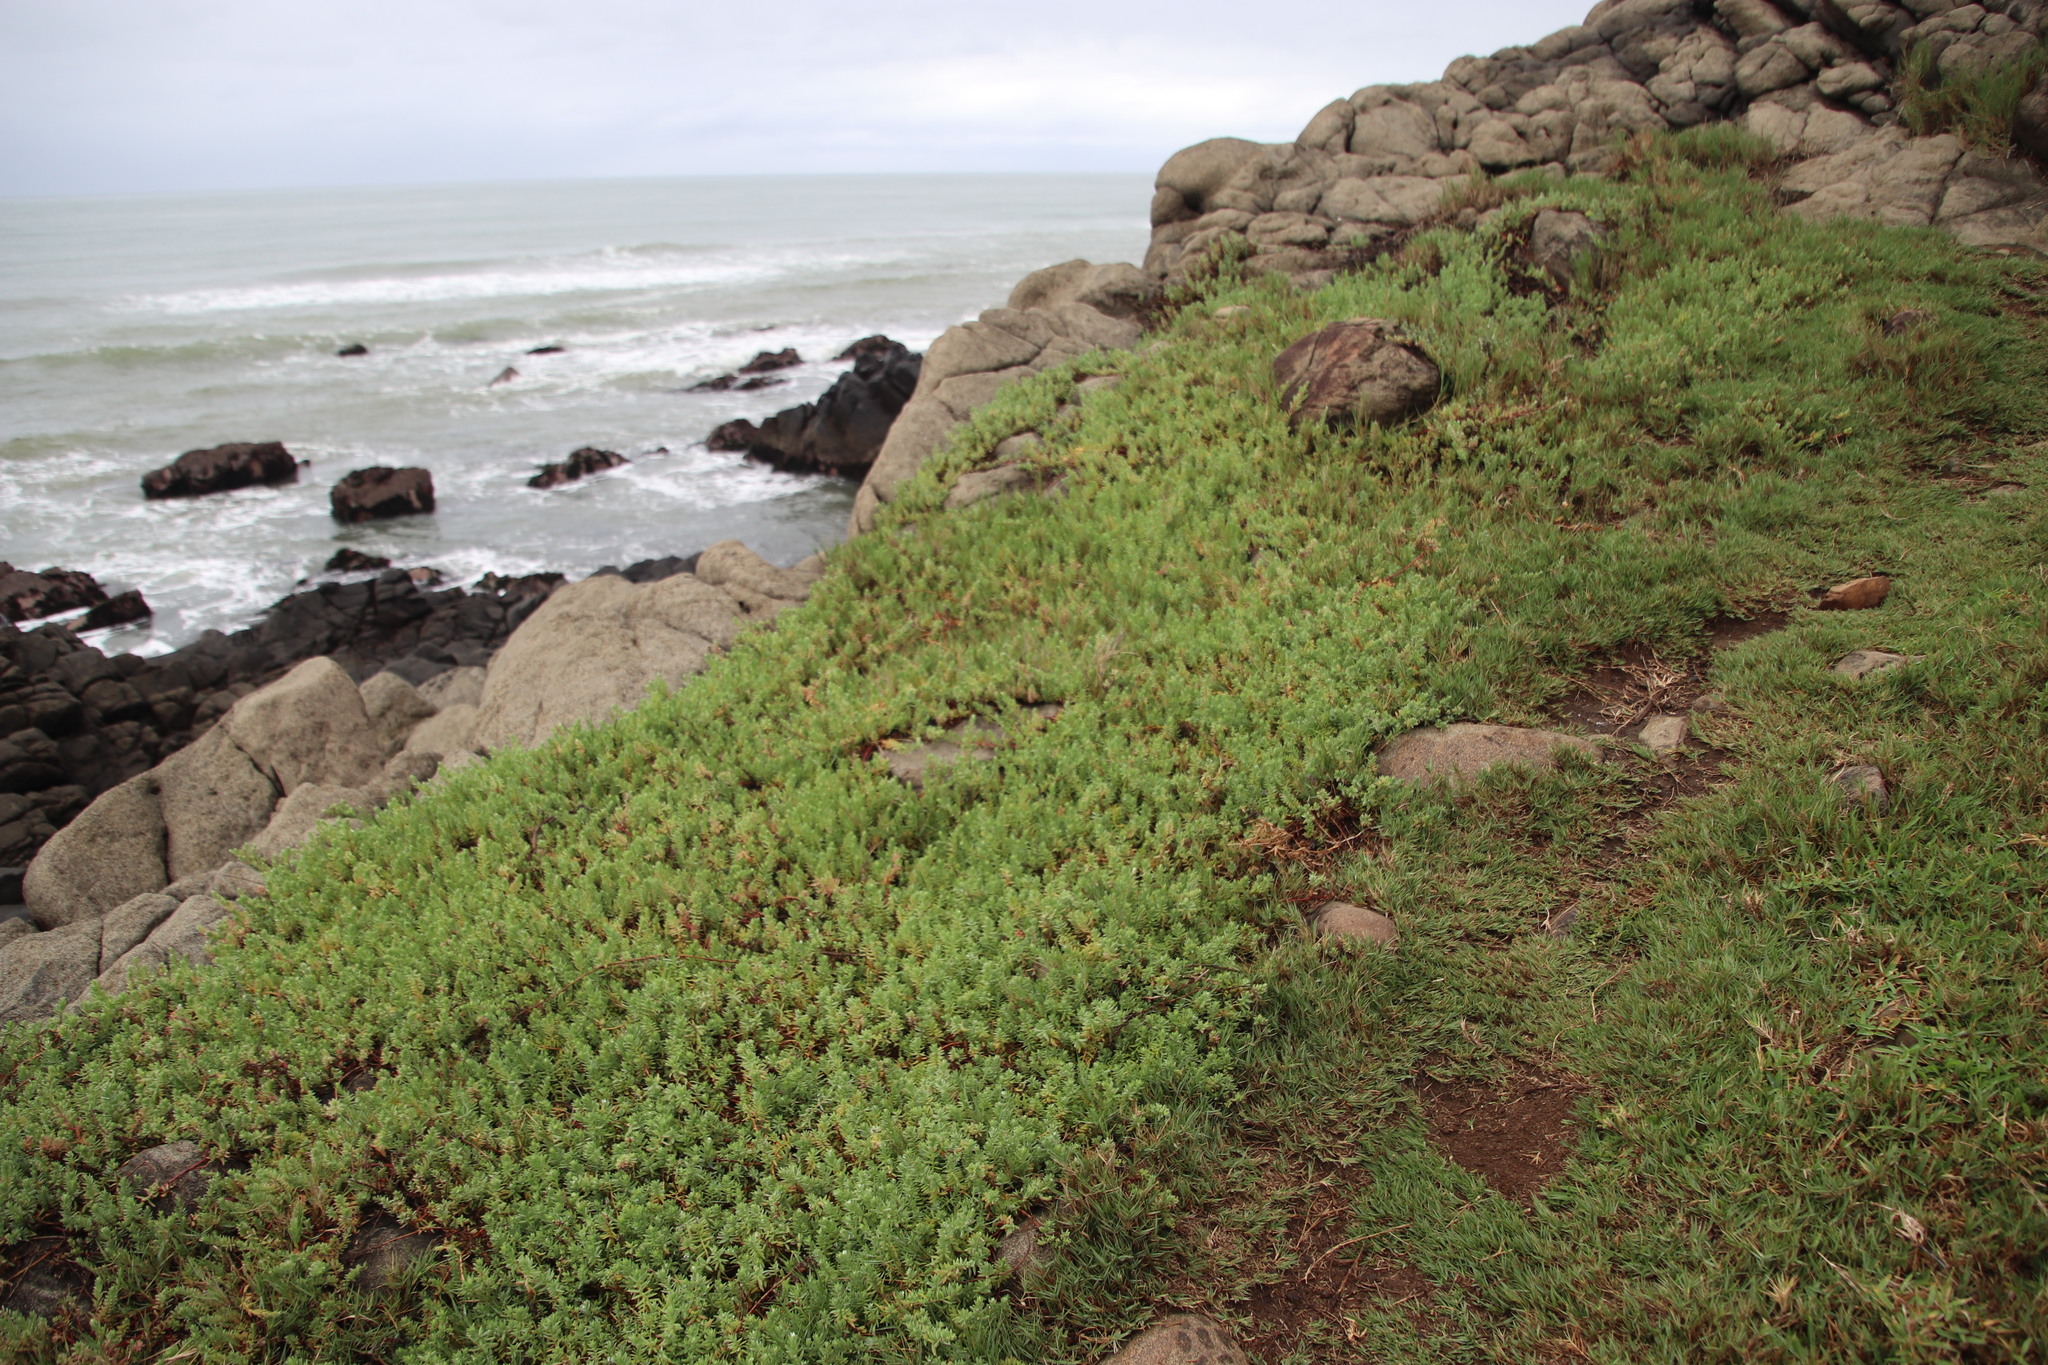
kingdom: Plantae
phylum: Tracheophyta
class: Magnoliopsida
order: Caryophyllales
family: Amaranthaceae
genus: Chenolea
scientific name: Chenolea diffusa
